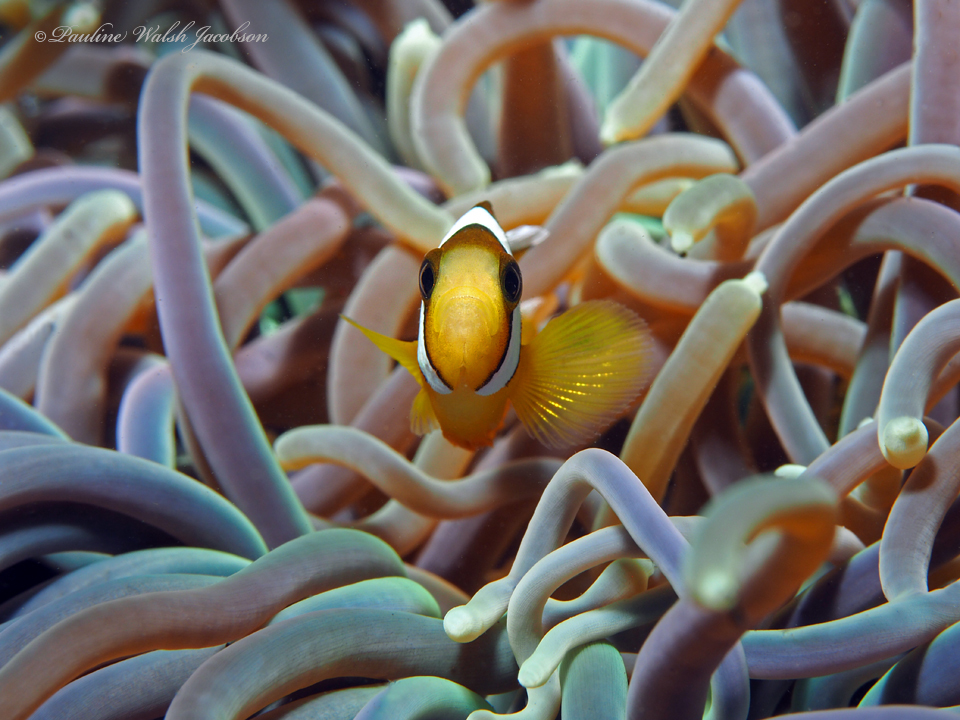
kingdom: Animalia
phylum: Chordata
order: Perciformes
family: Pomacentridae
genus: Amphiprion
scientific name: Amphiprion clarkii
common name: Clark's anemonefish
